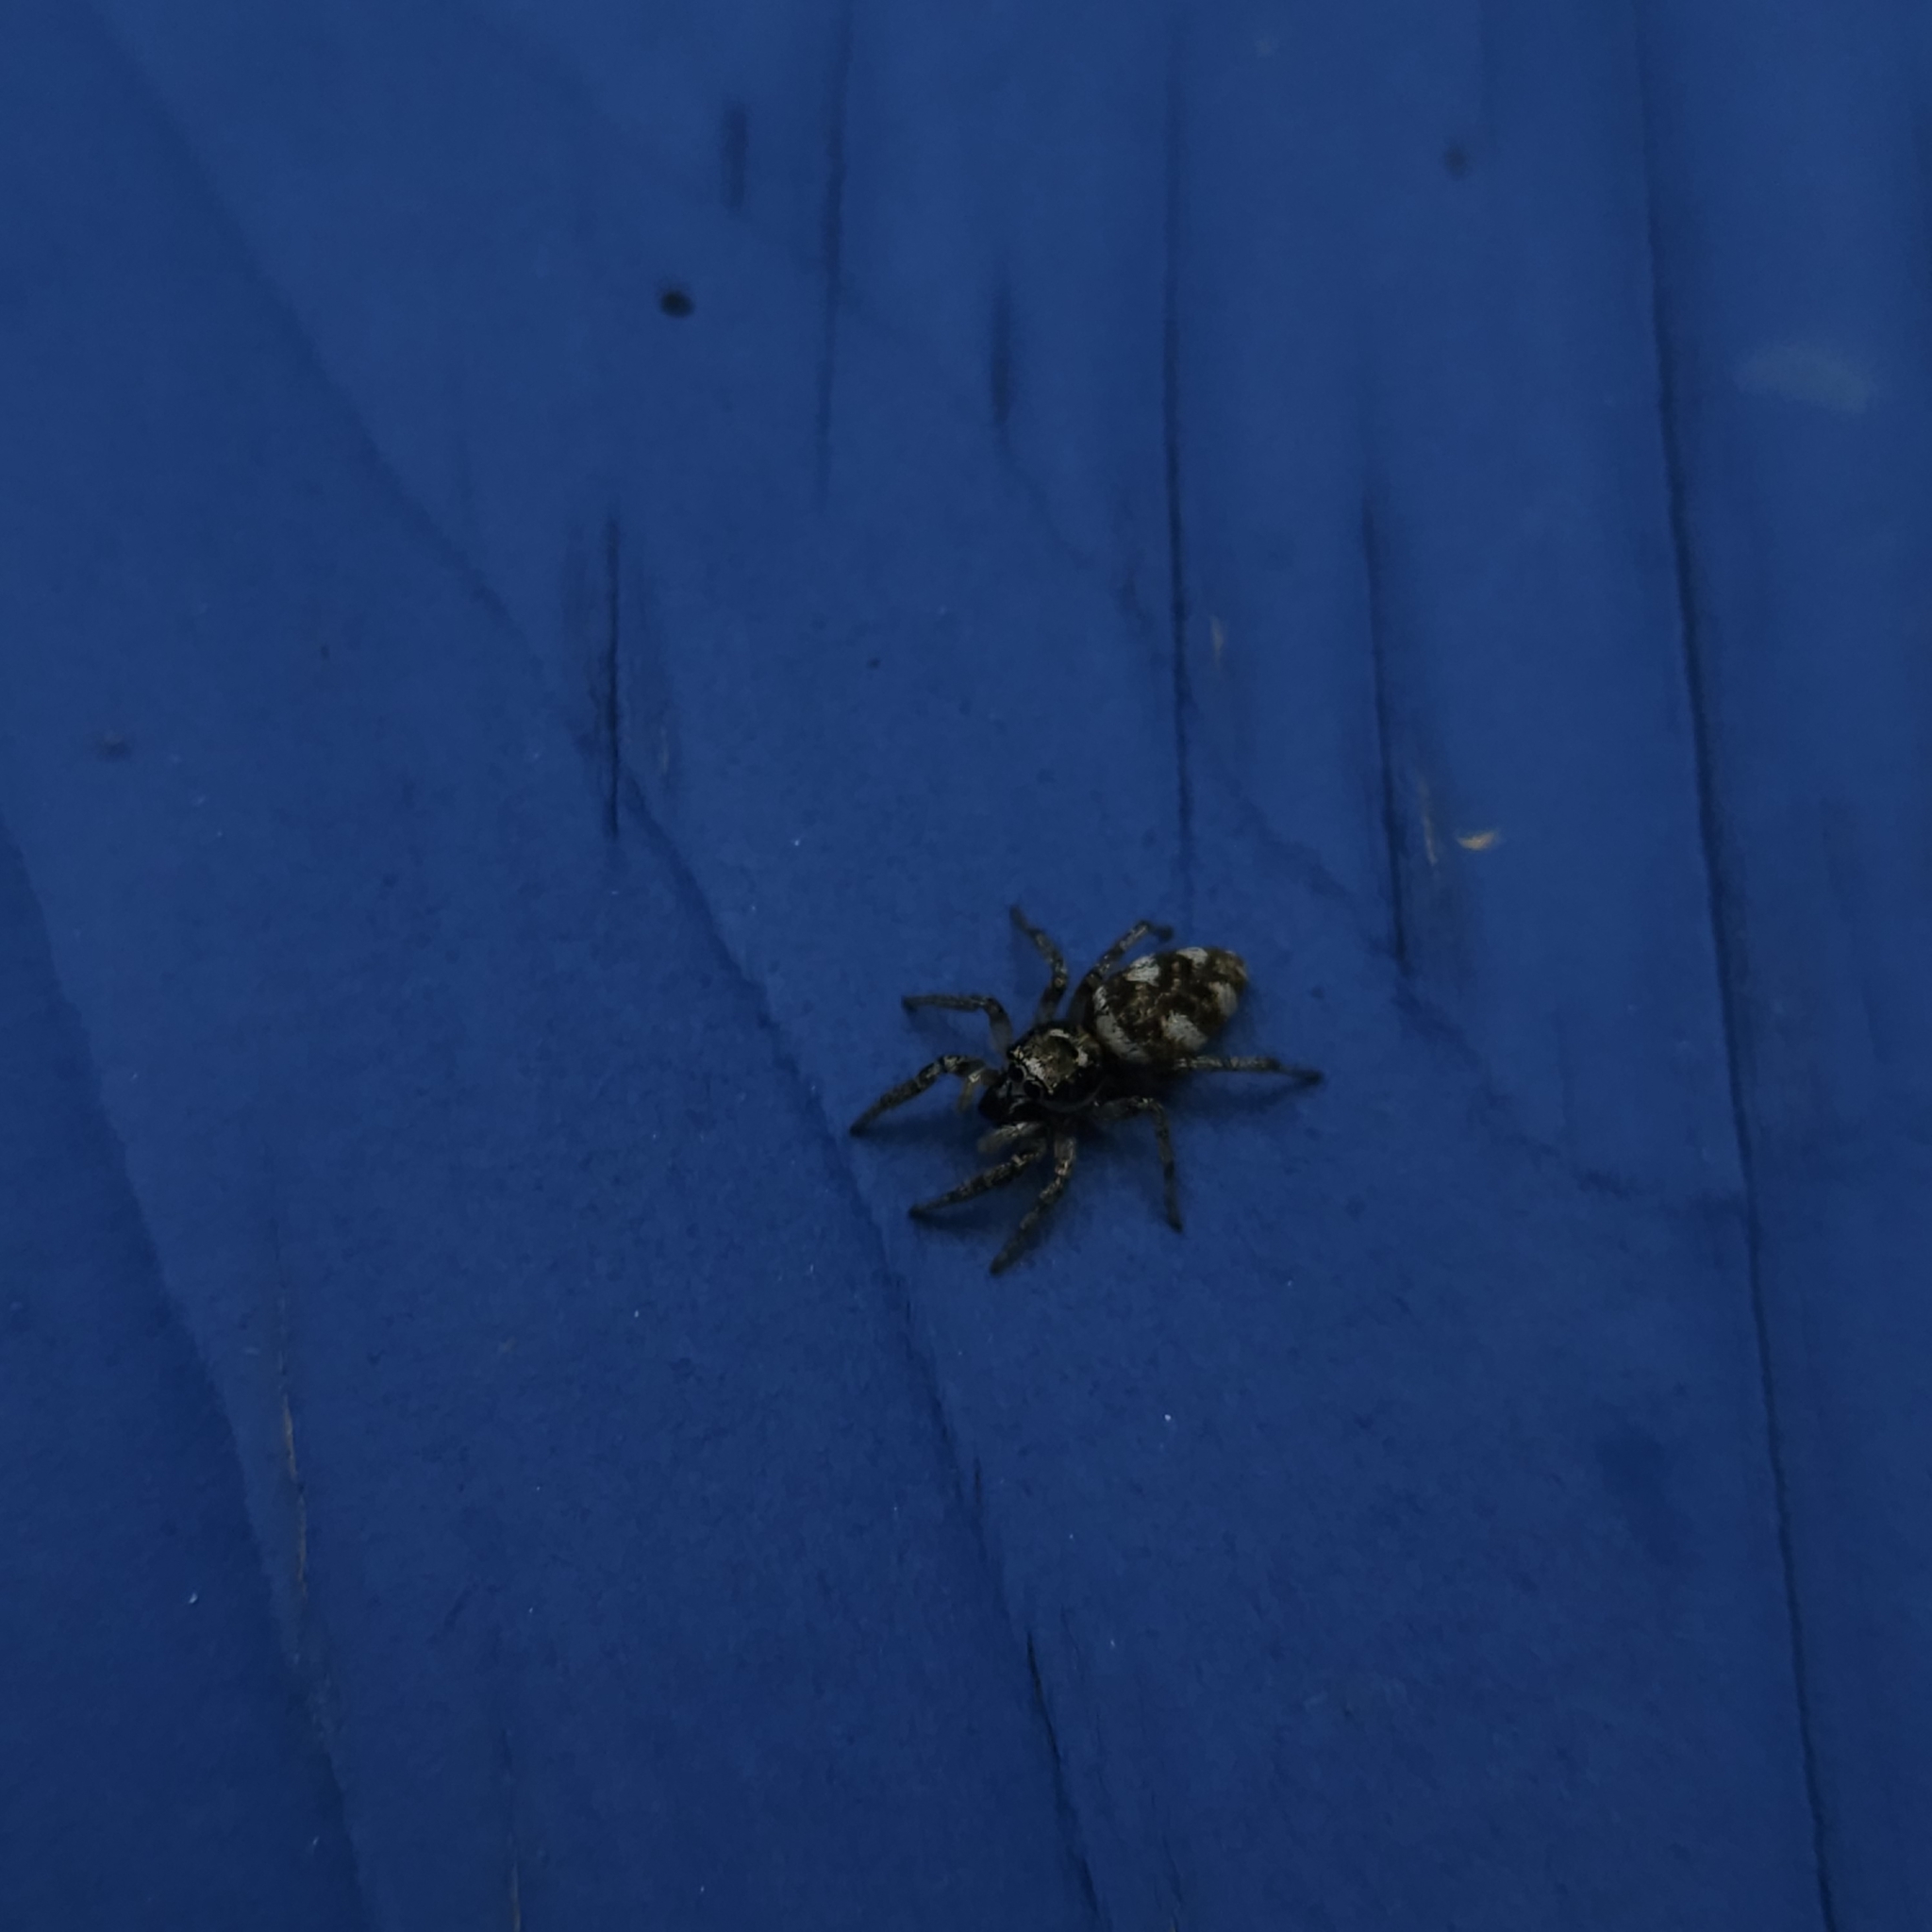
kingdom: Animalia
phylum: Arthropoda
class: Arachnida
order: Araneae
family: Salticidae
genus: Salticus
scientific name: Salticus scenicus
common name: Zebra jumper
